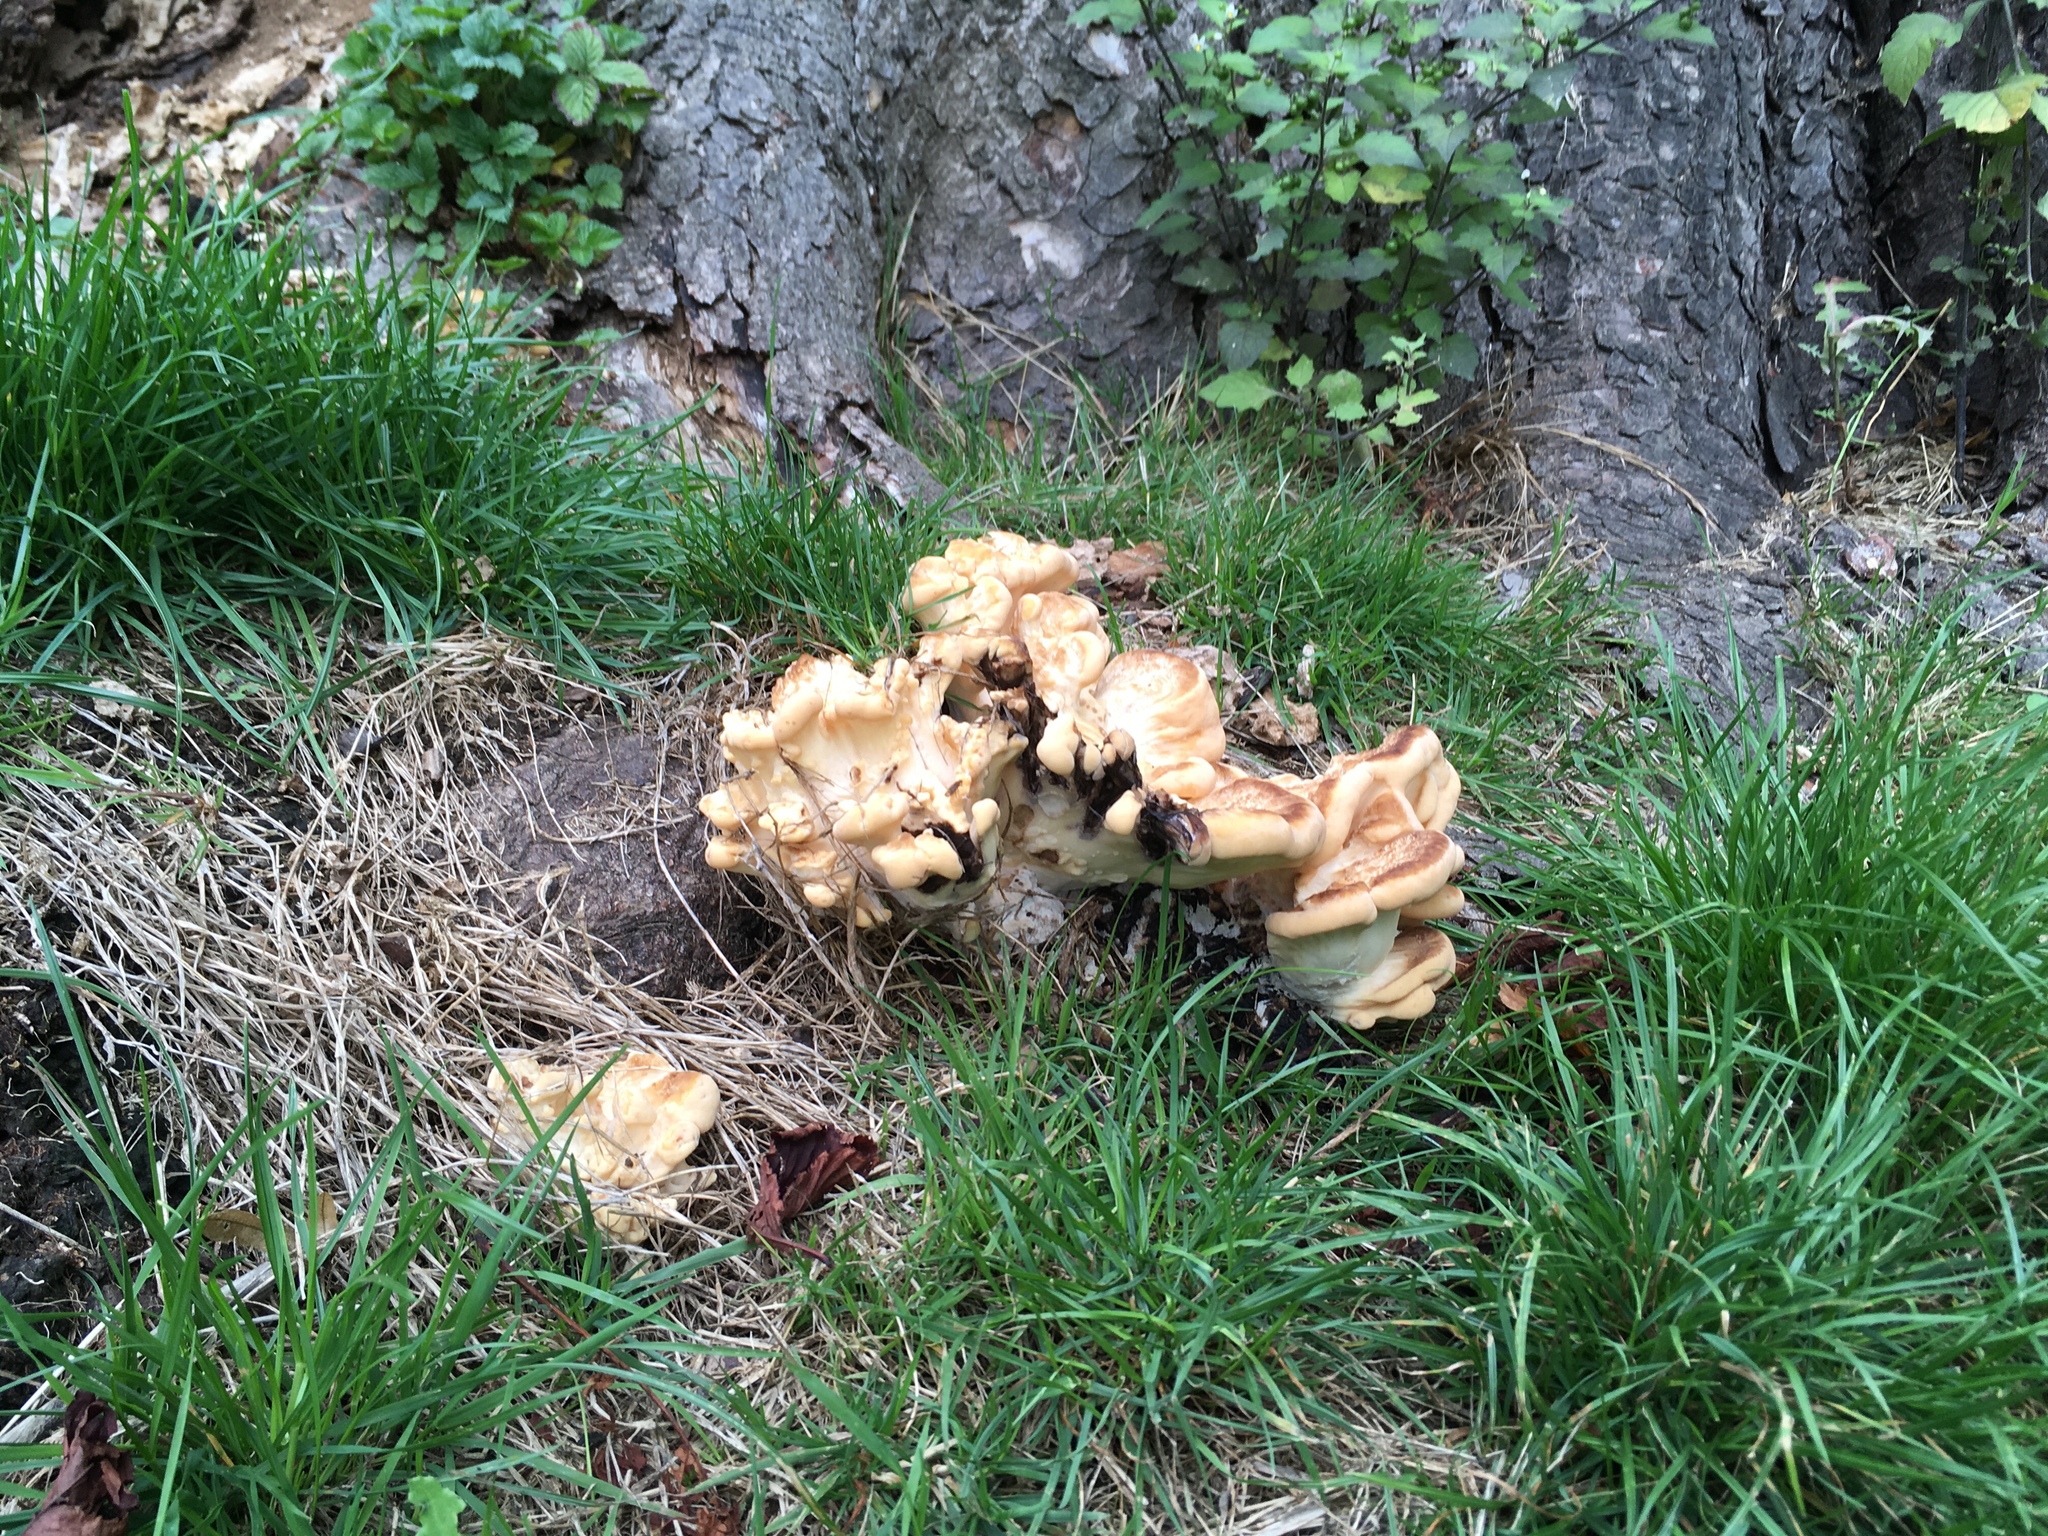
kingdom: Fungi
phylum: Basidiomycota
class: Agaricomycetes
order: Polyporales
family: Meripilaceae
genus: Meripilus
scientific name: Meripilus giganteus
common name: Giant polypore
